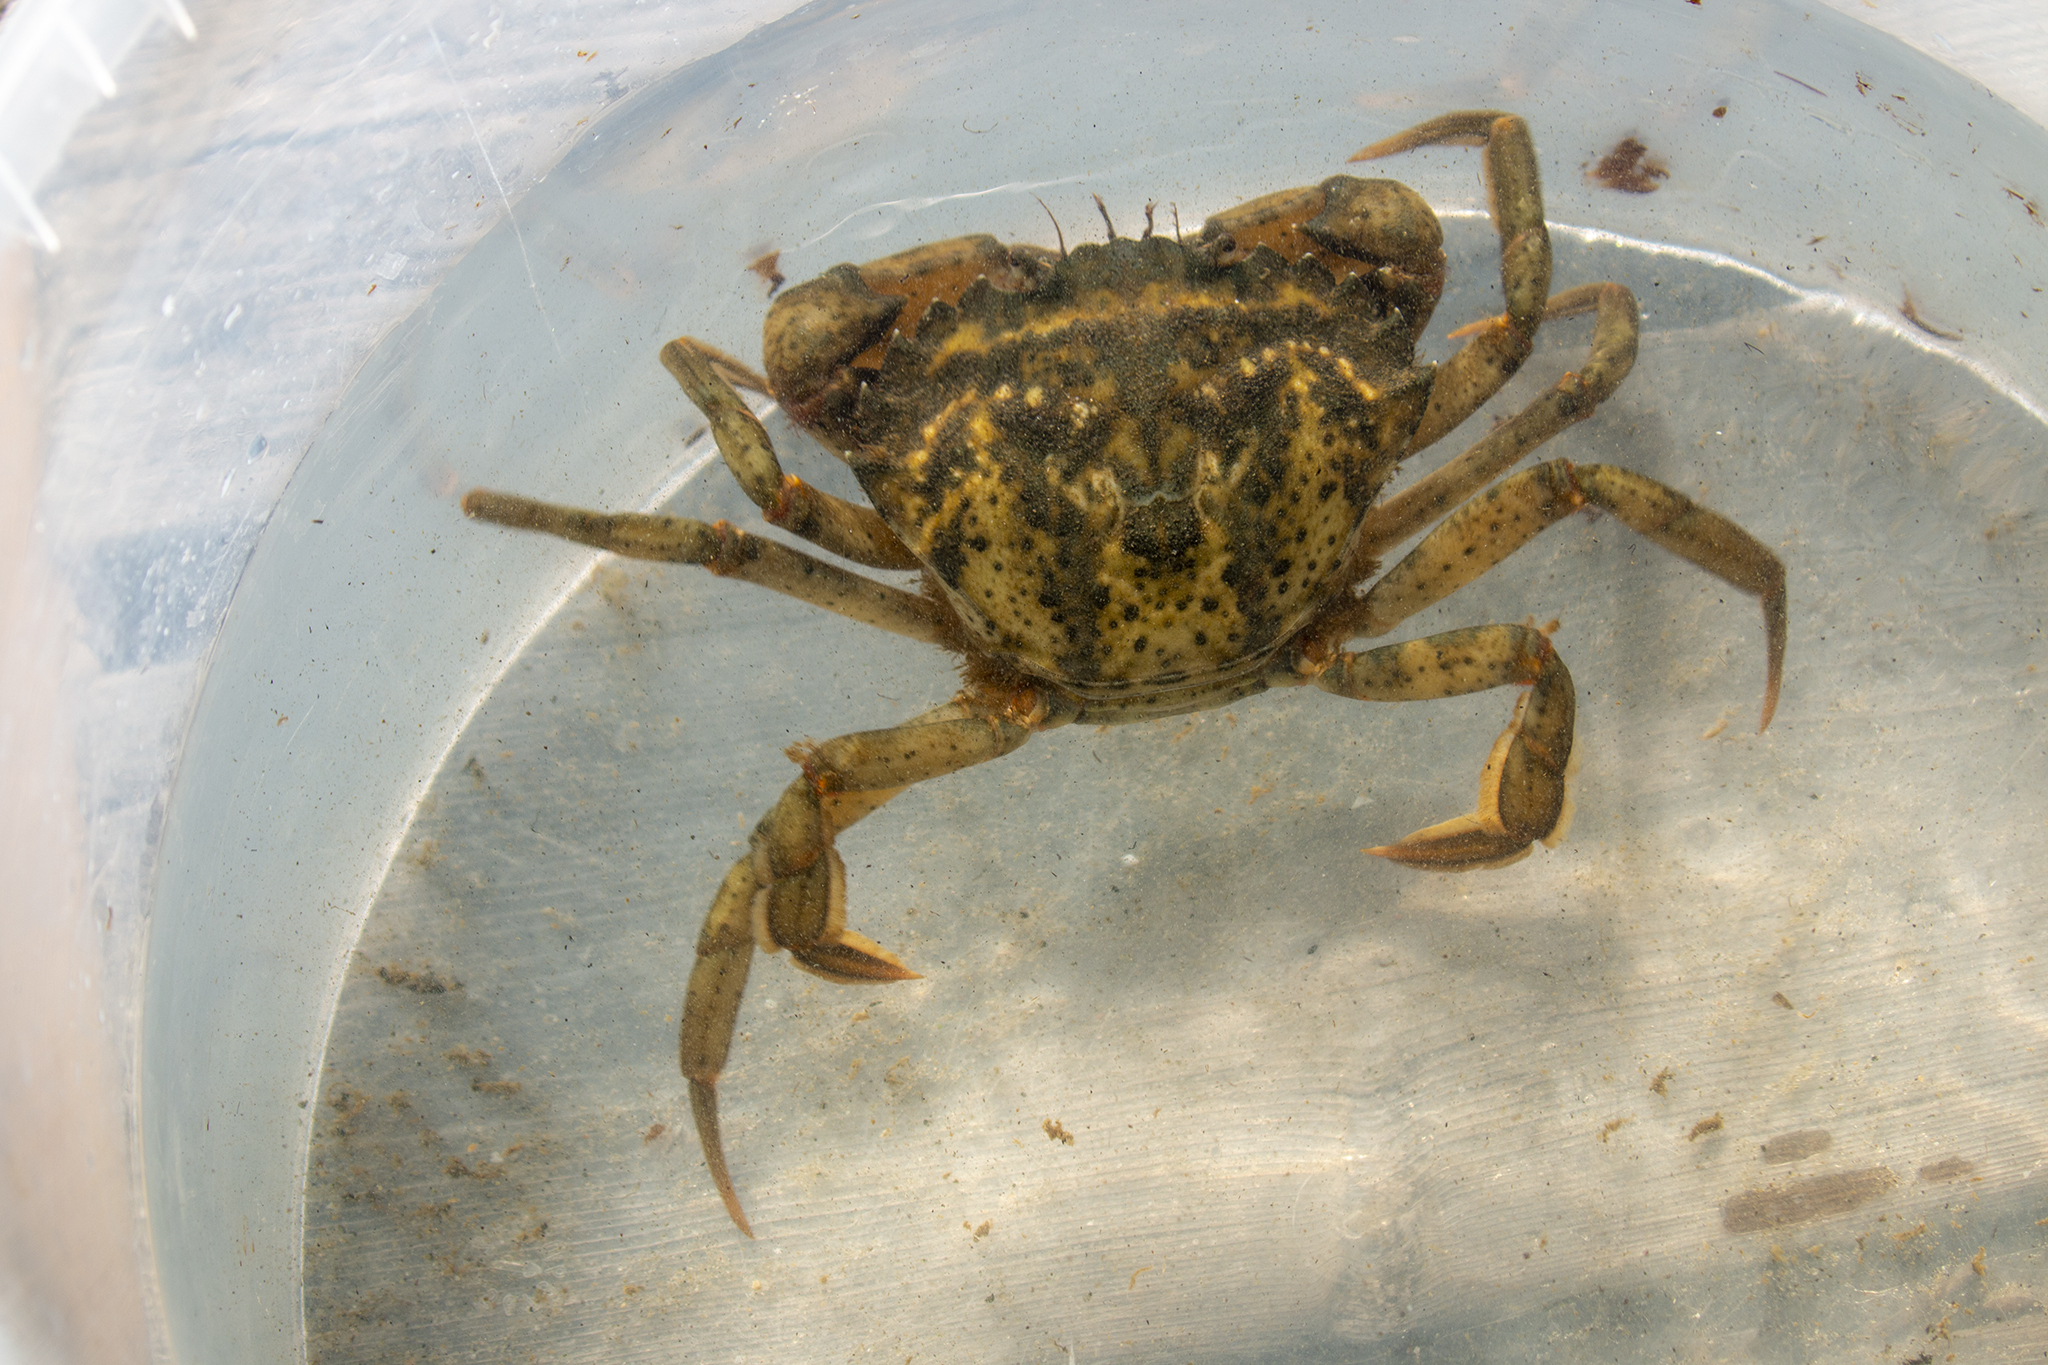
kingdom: Animalia
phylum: Arthropoda
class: Malacostraca
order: Decapoda
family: Carcinidae
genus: Carcinus
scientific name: Carcinus maenas
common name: European green crab
